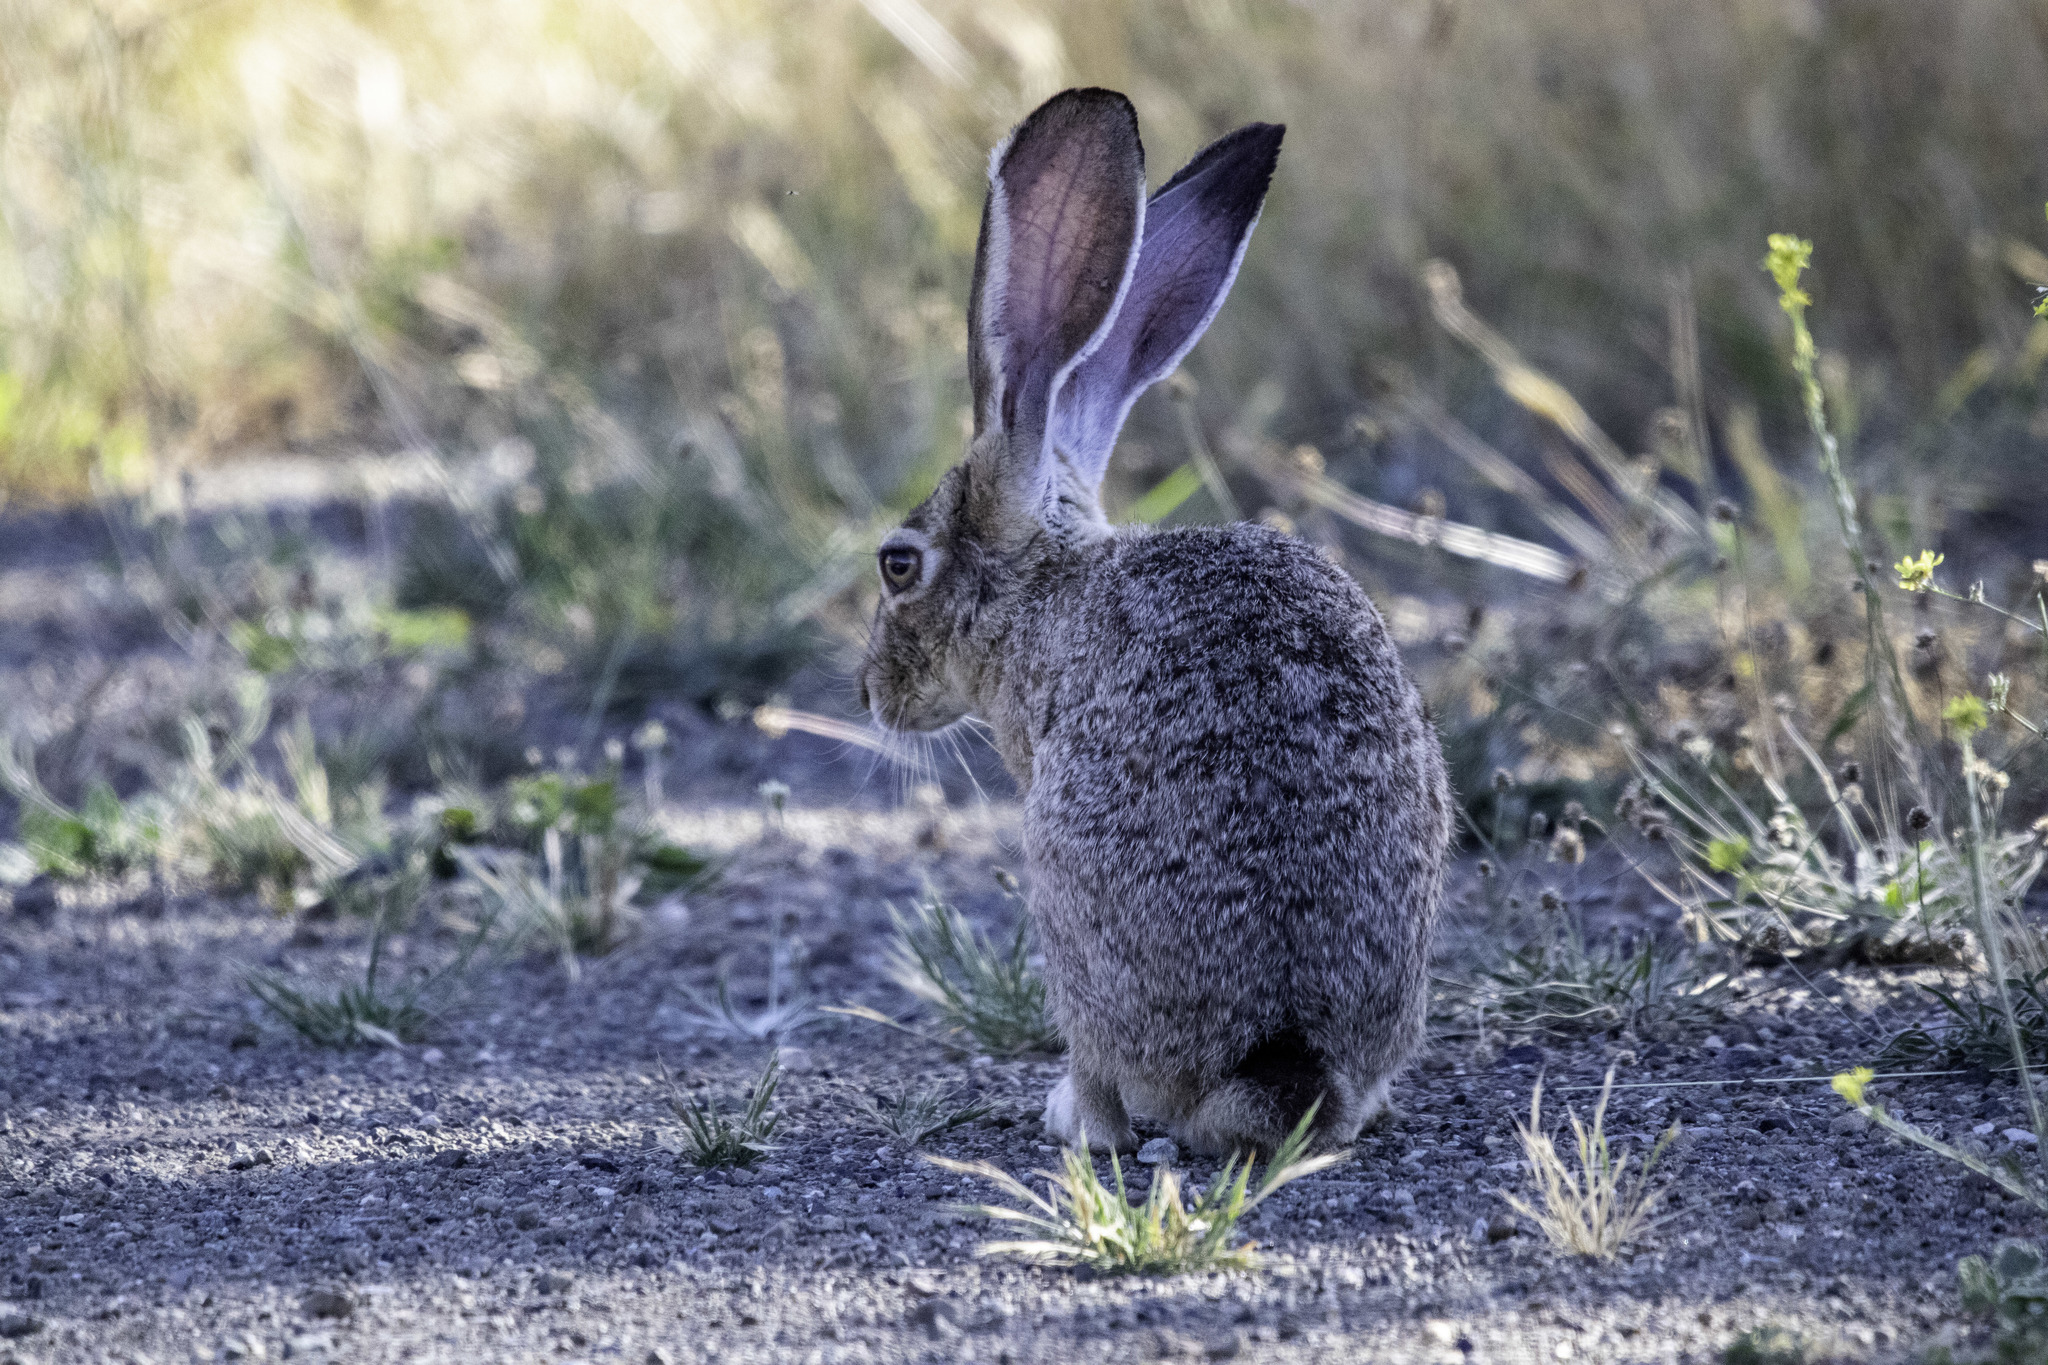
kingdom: Animalia
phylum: Chordata
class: Mammalia
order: Lagomorpha
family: Leporidae
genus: Lepus
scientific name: Lepus californicus
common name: Black-tailed jackrabbit
